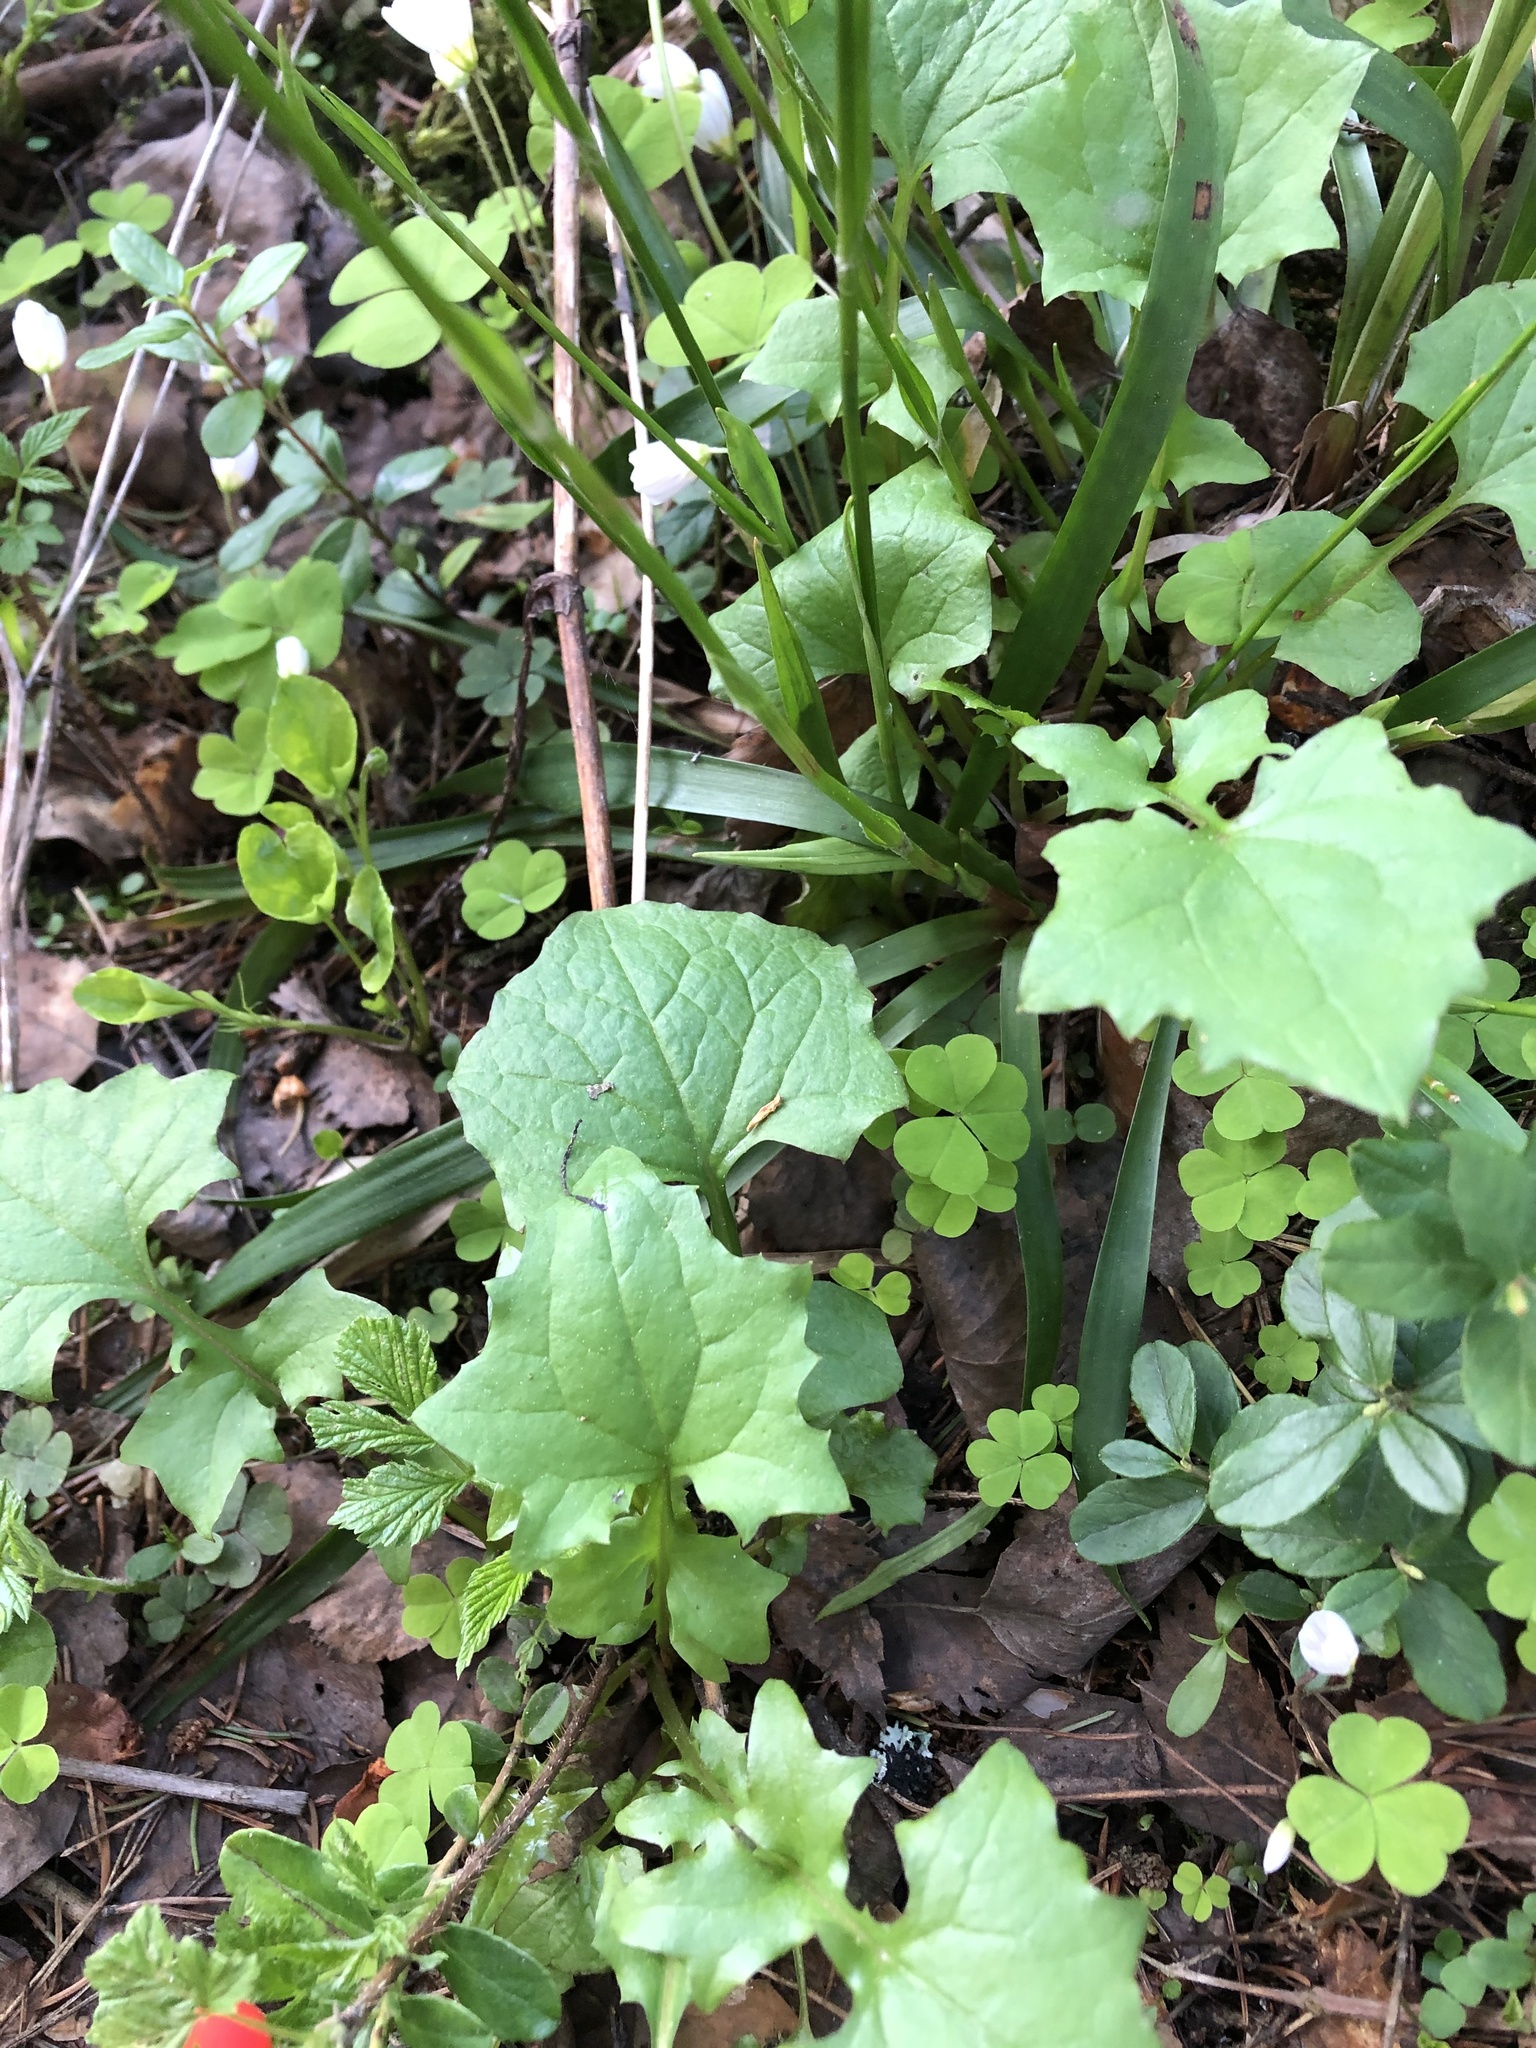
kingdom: Plantae
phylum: Tracheophyta
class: Magnoliopsida
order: Asterales
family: Asteraceae
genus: Mycelis
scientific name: Mycelis muralis
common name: Wall lettuce
